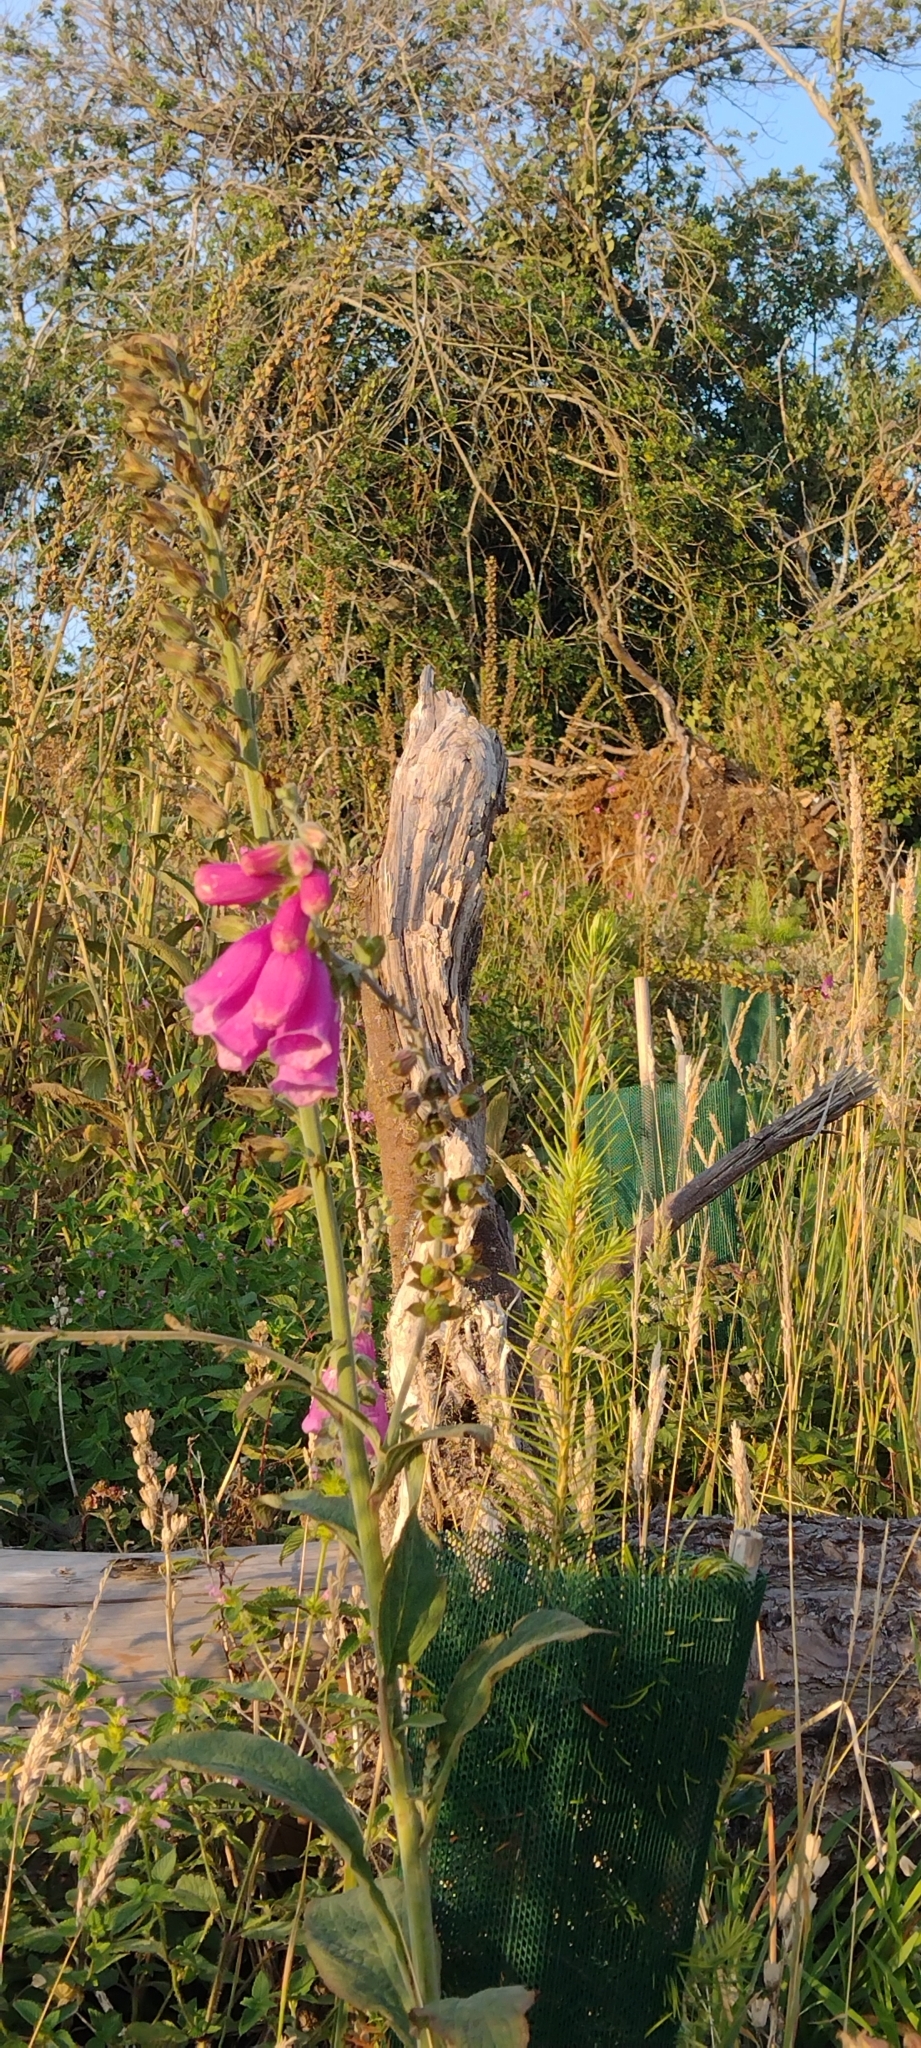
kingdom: Plantae
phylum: Tracheophyta
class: Magnoliopsida
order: Lamiales
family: Plantaginaceae
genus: Digitalis
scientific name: Digitalis purpurea
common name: Foxglove
